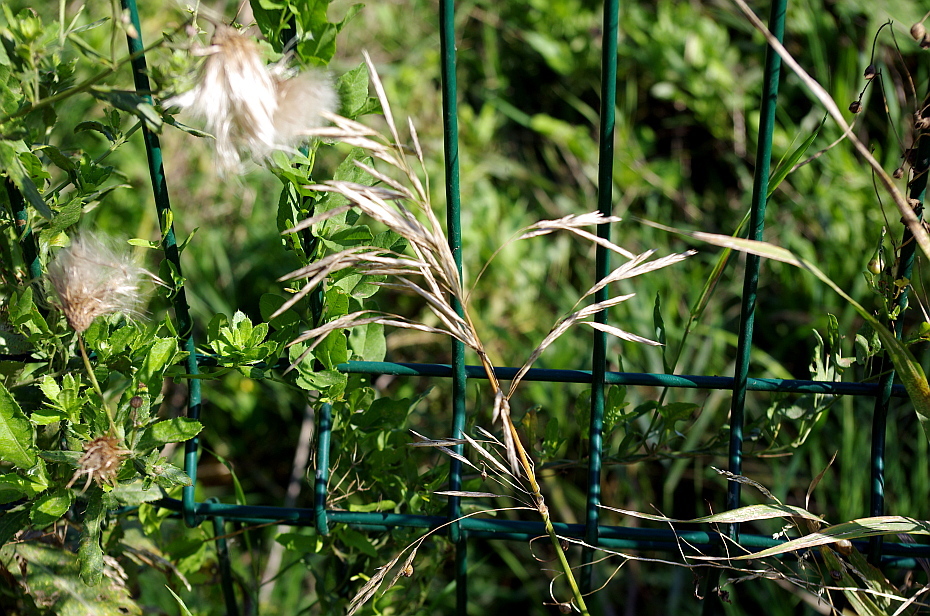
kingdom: Plantae
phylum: Tracheophyta
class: Liliopsida
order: Poales
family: Poaceae
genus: Bromus
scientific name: Bromus inermis
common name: Smooth brome
